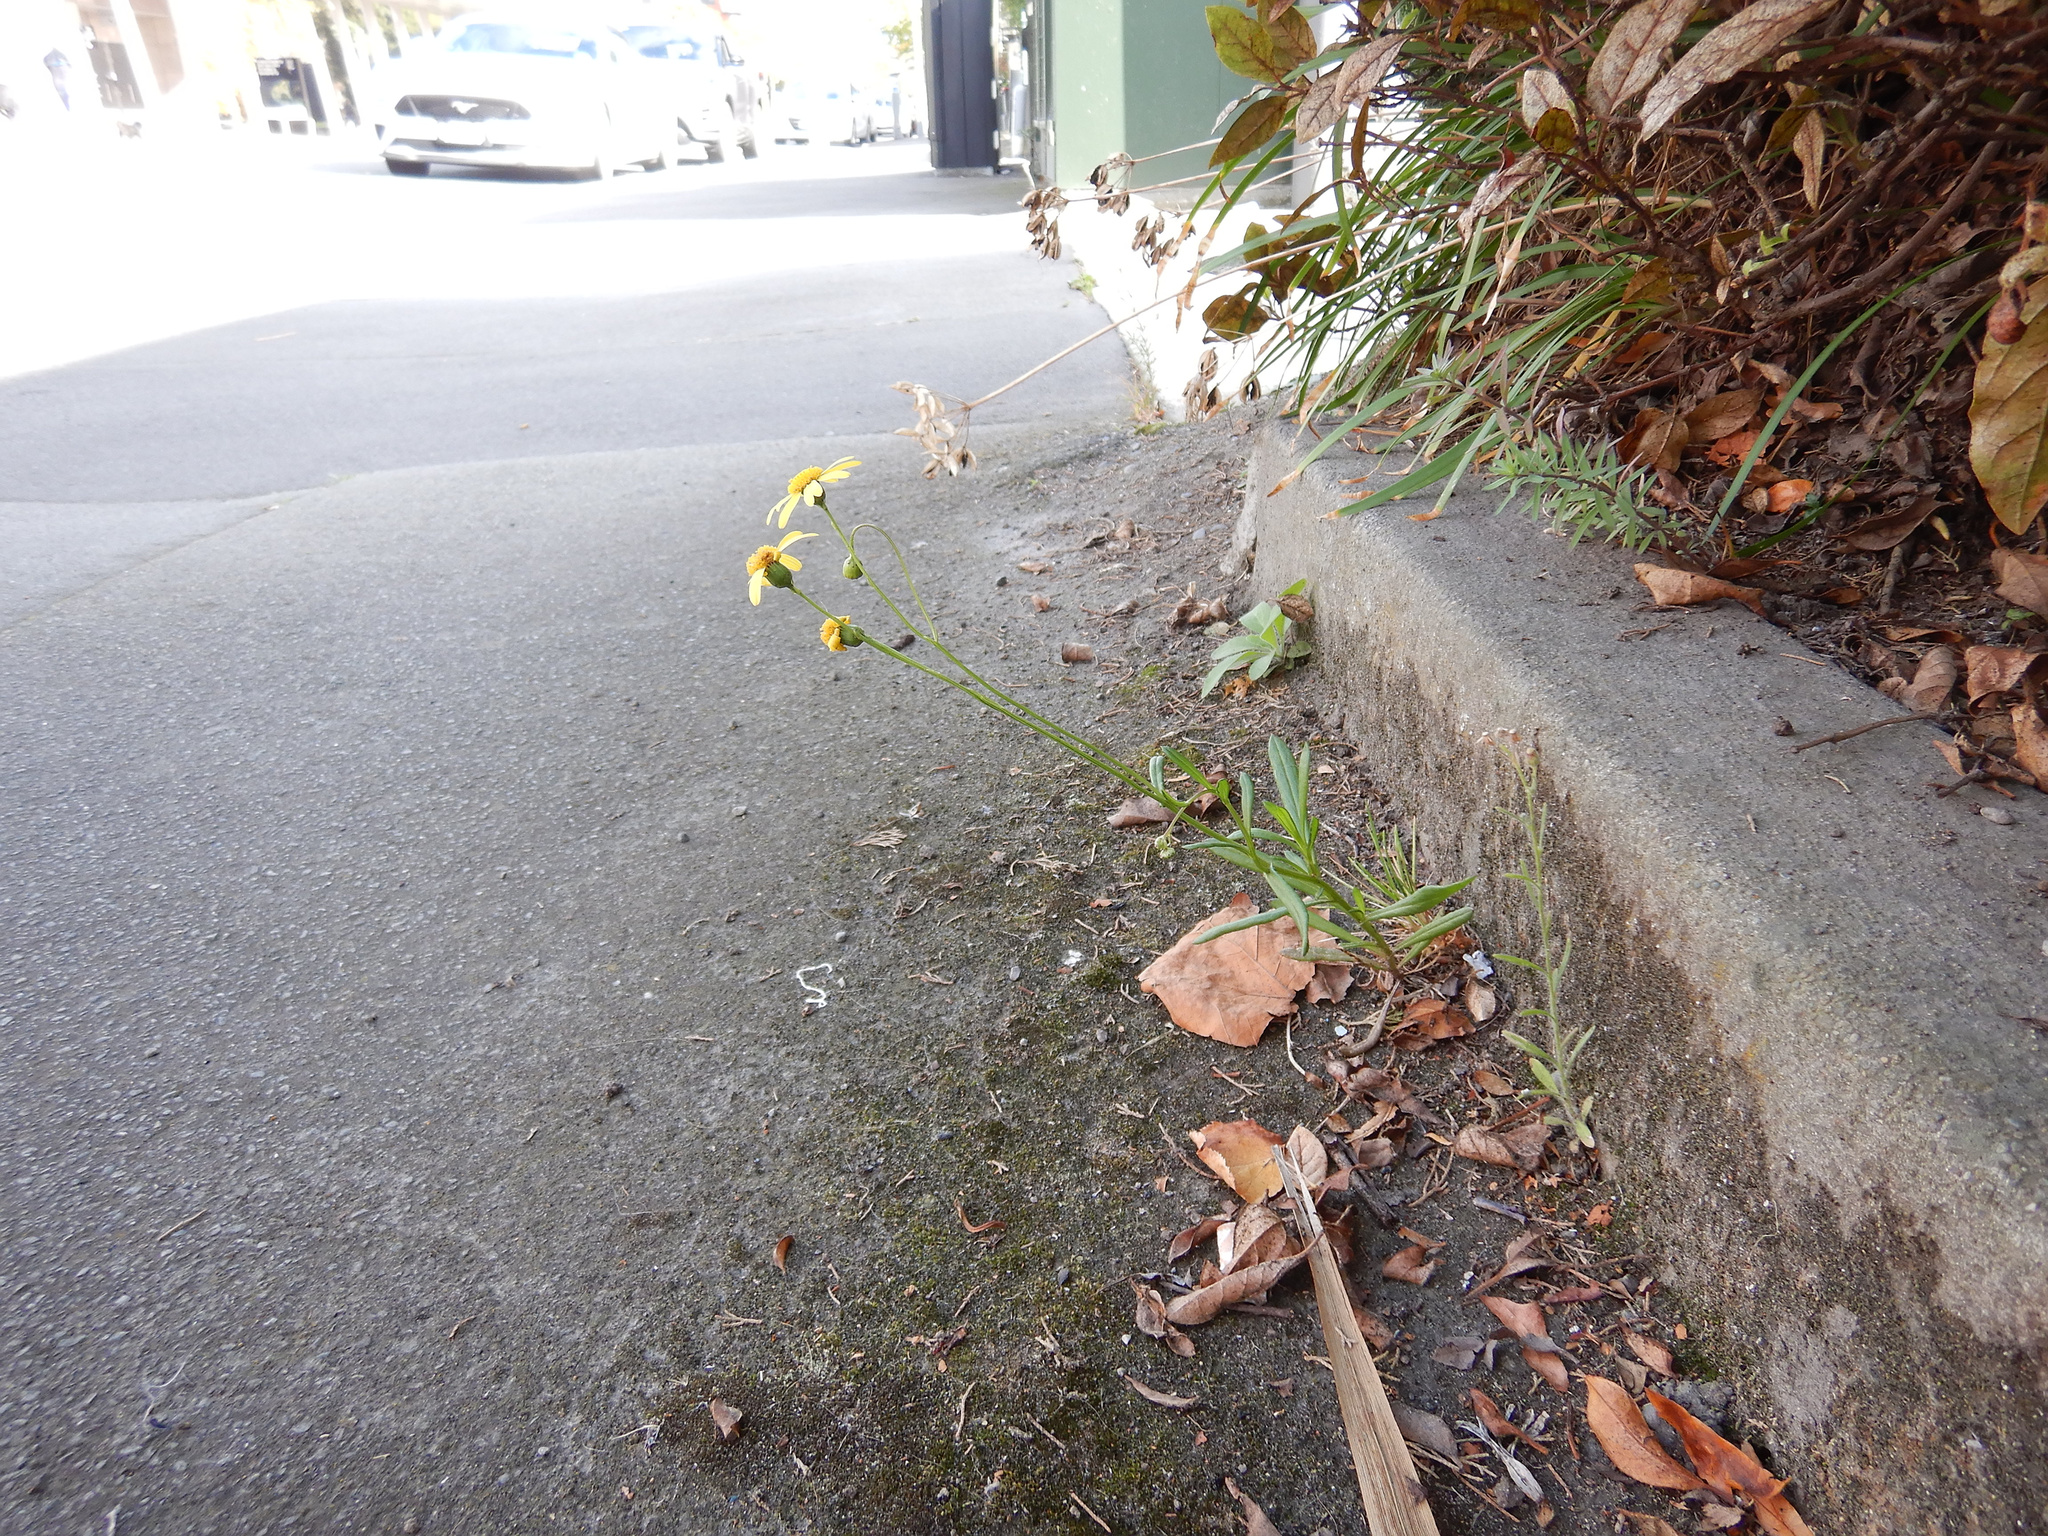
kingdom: Plantae
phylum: Tracheophyta
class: Magnoliopsida
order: Asterales
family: Asteraceae
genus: Senecio
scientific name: Senecio skirrhodon
